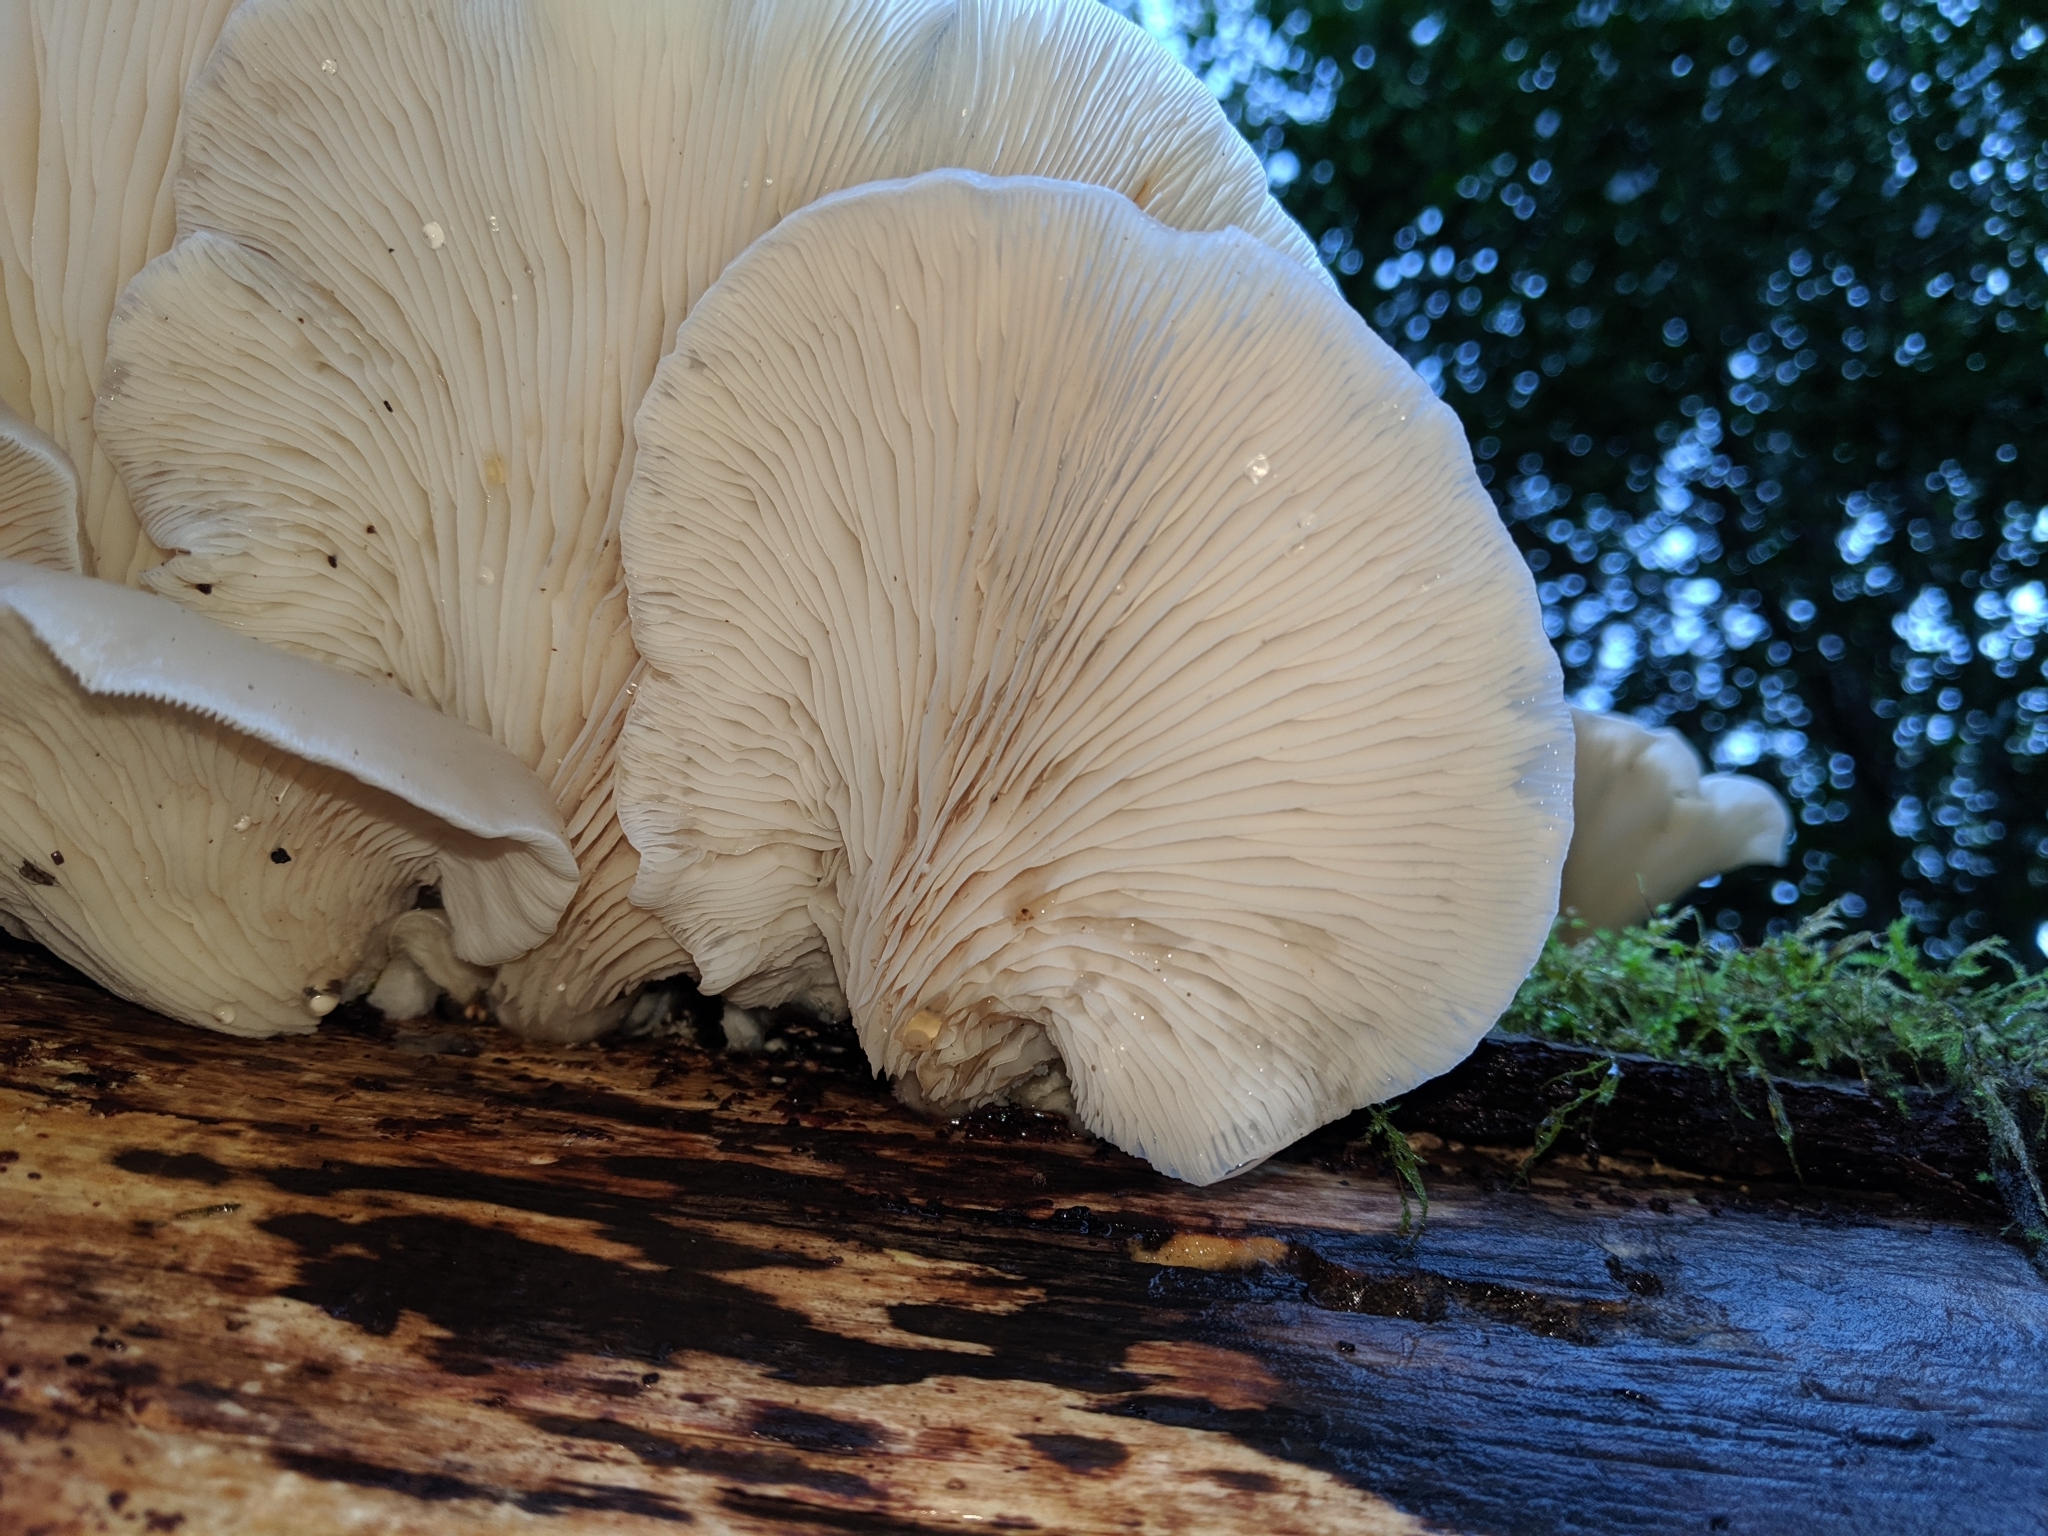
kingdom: Fungi
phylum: Basidiomycota
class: Agaricomycetes
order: Agaricales
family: Pleurotaceae
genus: Pleurotus
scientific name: Pleurotus ostreatus
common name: Oyster mushroom
